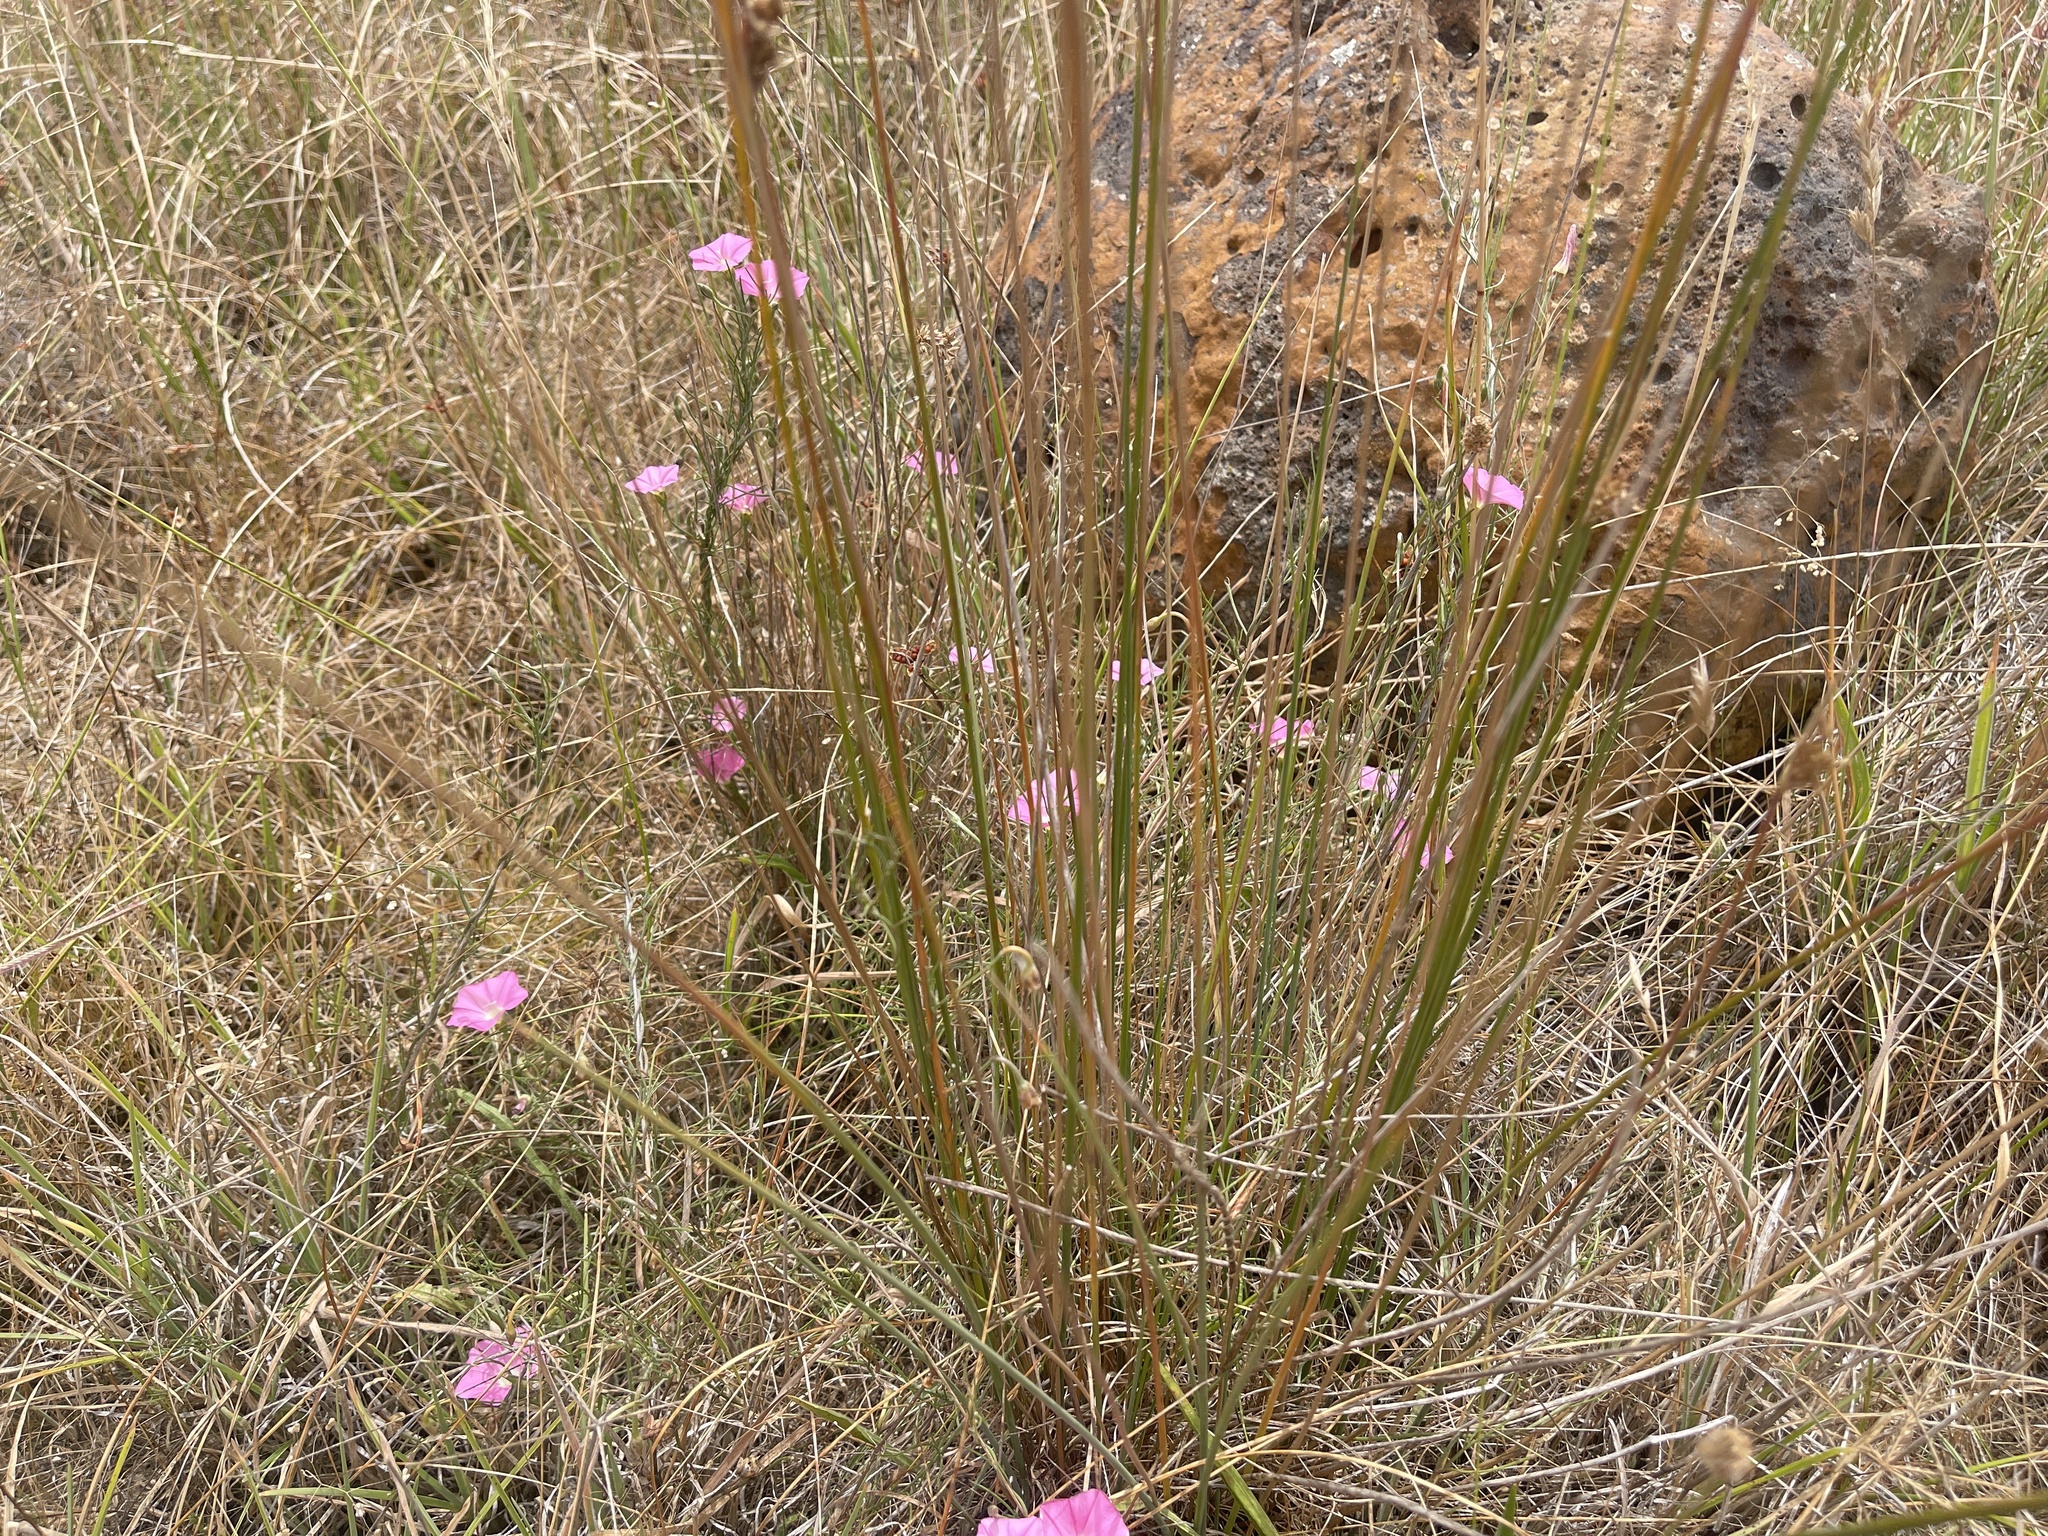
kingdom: Plantae
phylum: Tracheophyta
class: Magnoliopsida
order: Solanales
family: Convolvulaceae
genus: Convolvulus
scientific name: Convolvulus angustissimus
